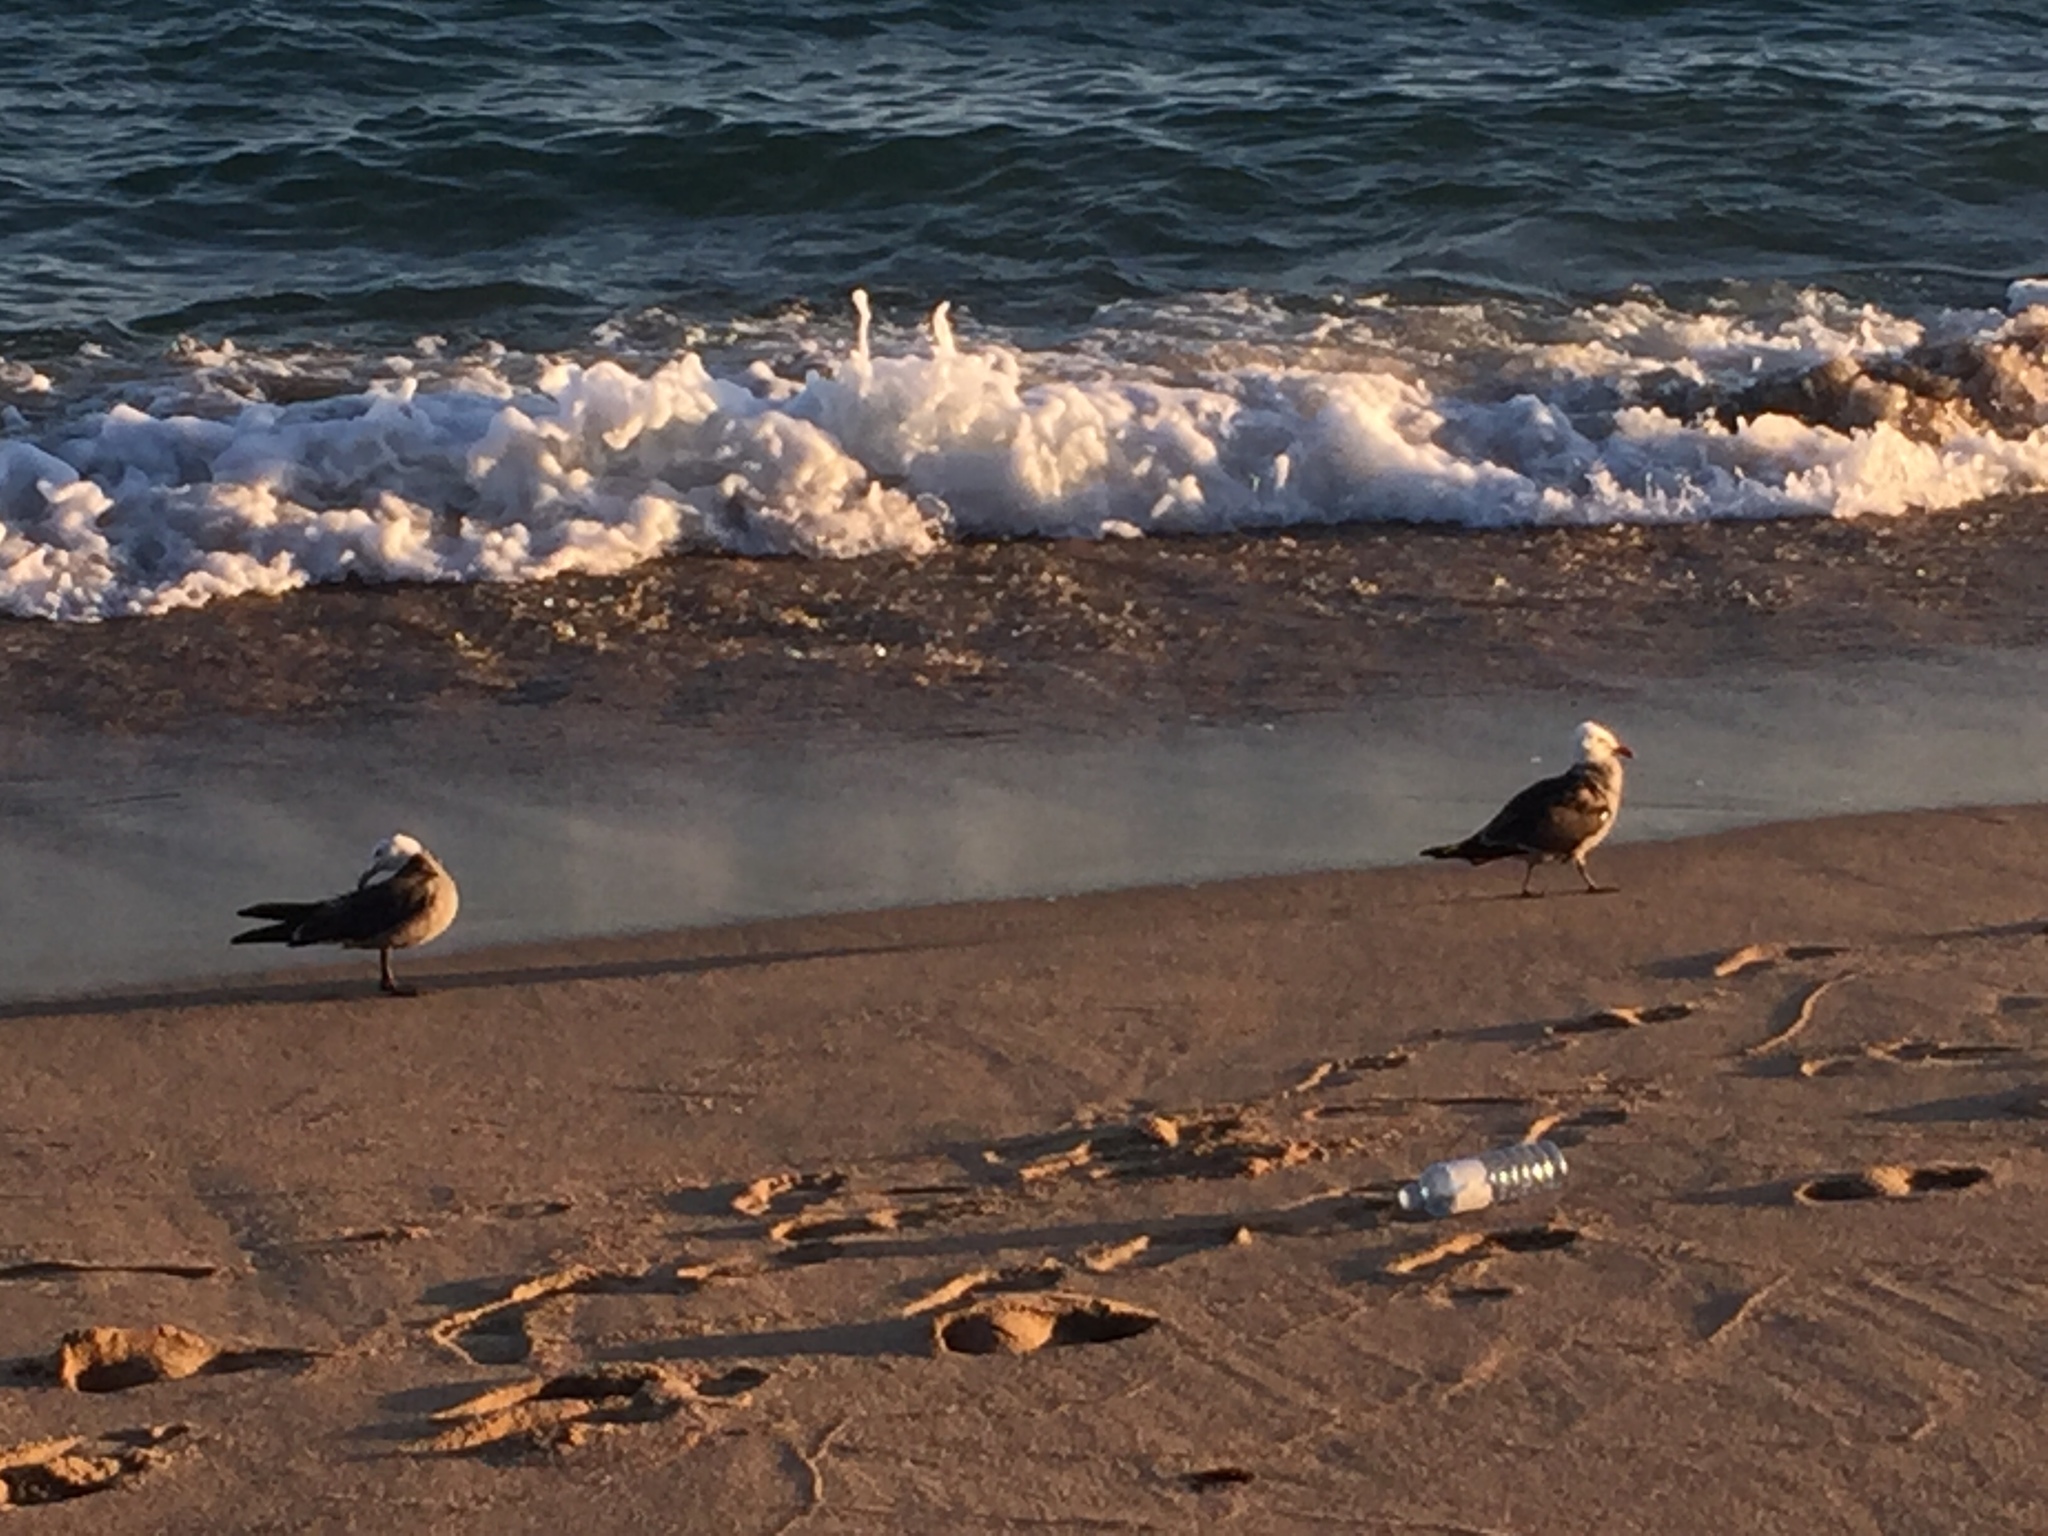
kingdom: Animalia
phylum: Chordata
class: Aves
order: Charadriiformes
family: Laridae
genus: Larus
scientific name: Larus heermanni
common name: Heermann's gull
